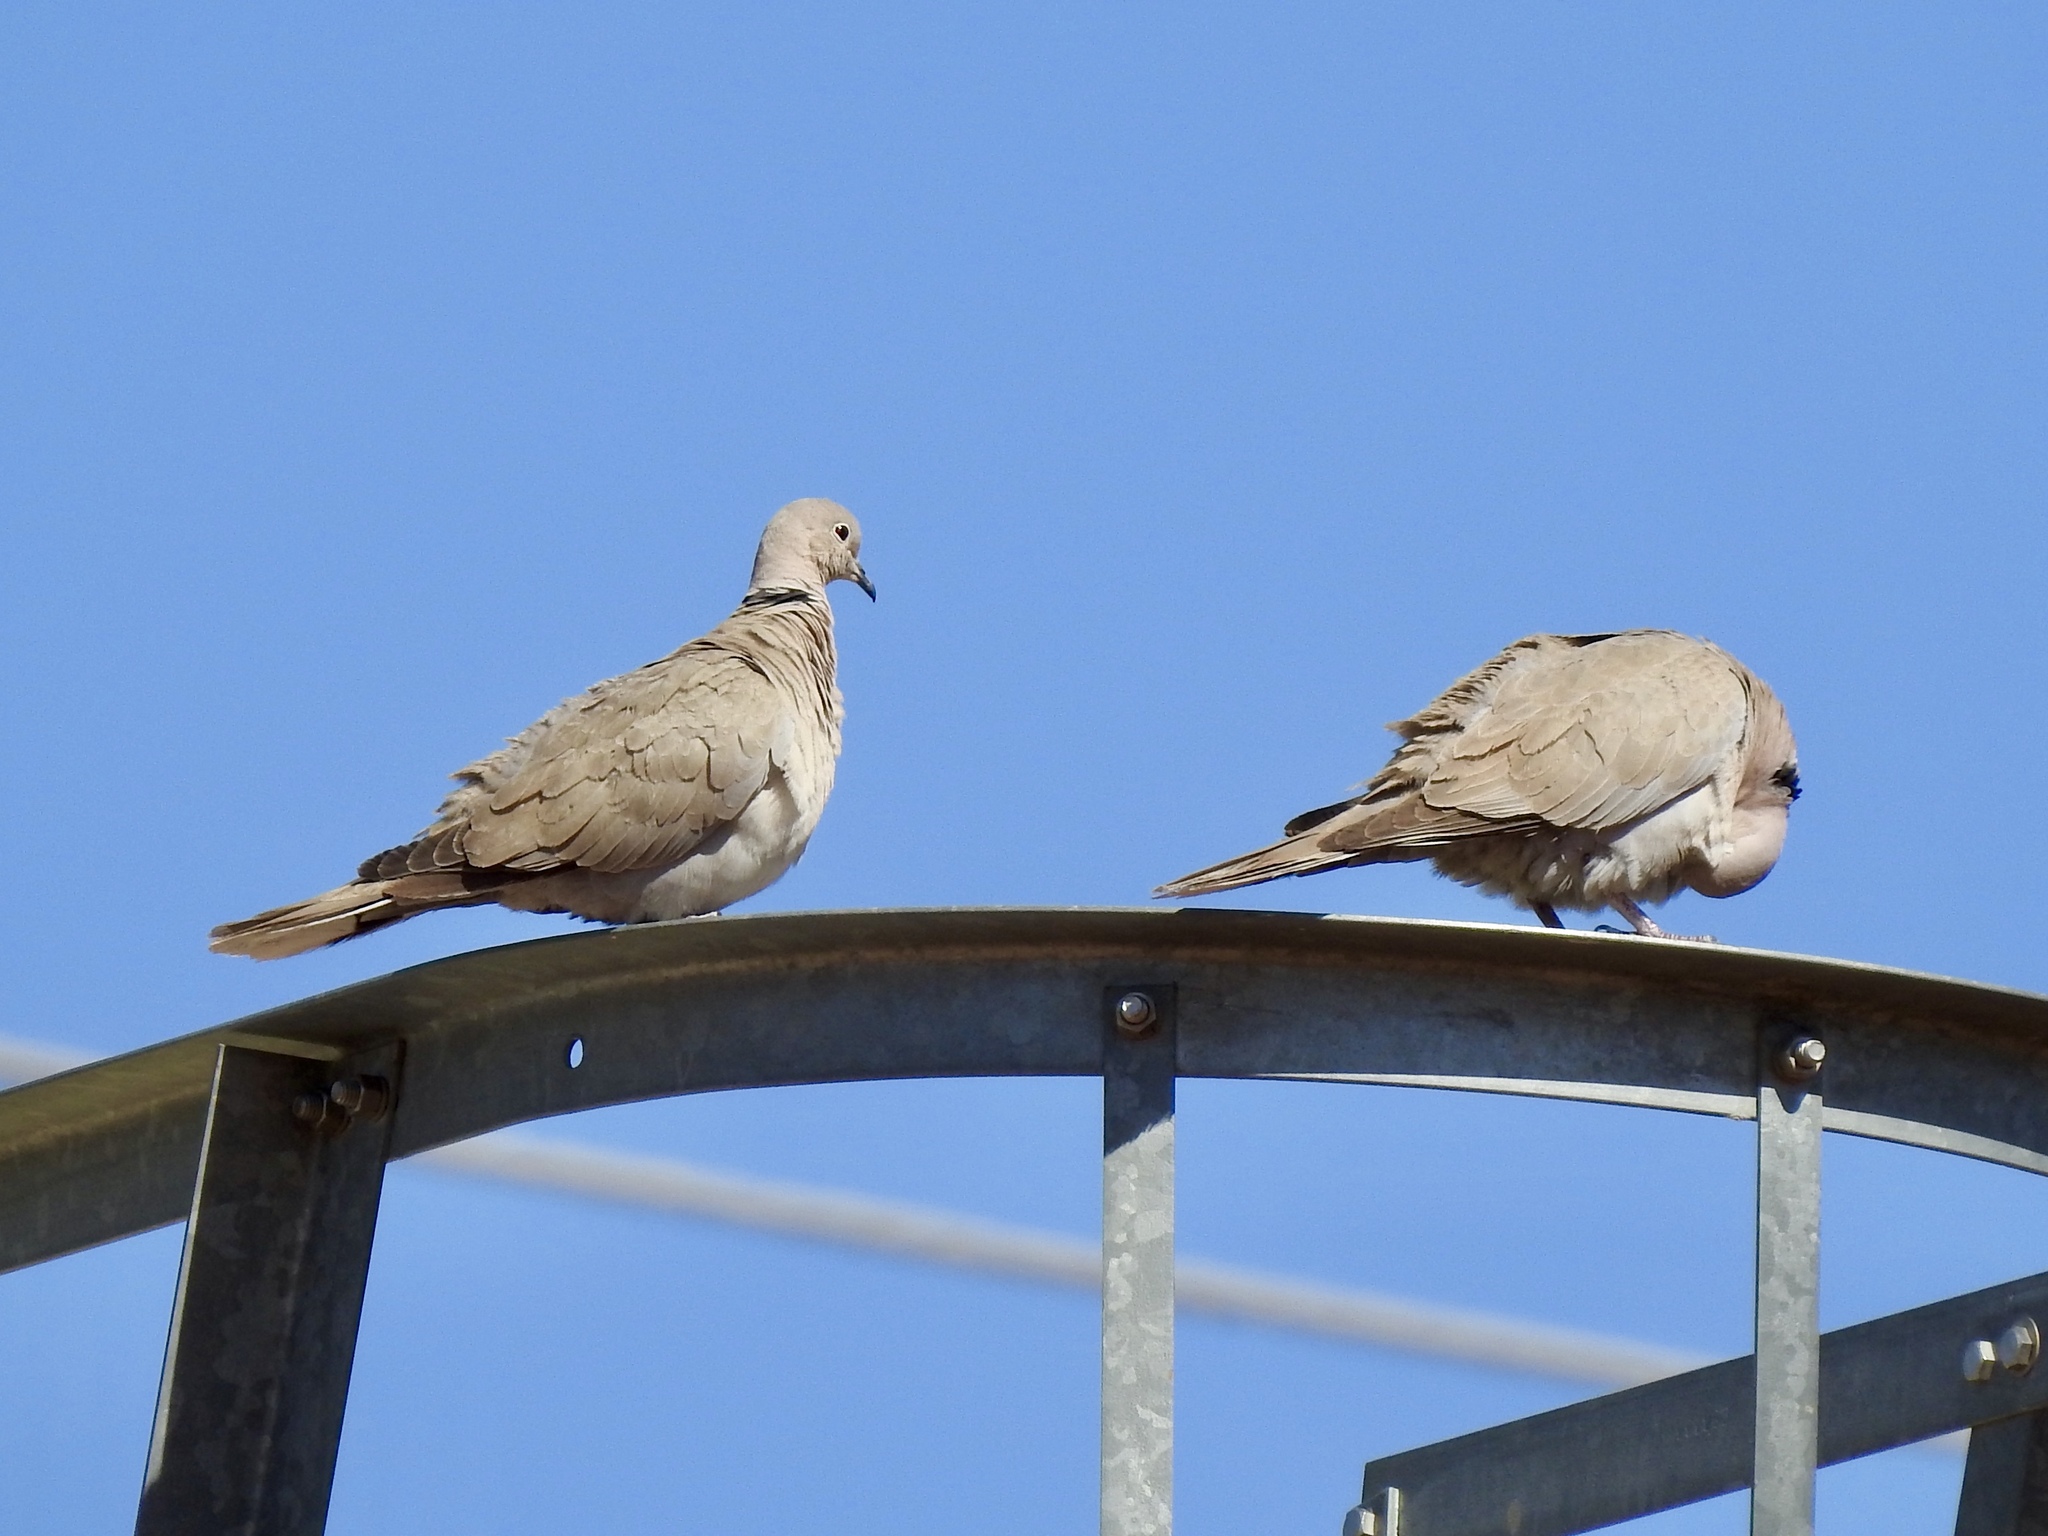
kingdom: Animalia
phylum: Chordata
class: Aves
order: Columbiformes
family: Columbidae
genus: Streptopelia
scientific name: Streptopelia decaocto
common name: Eurasian collared dove
